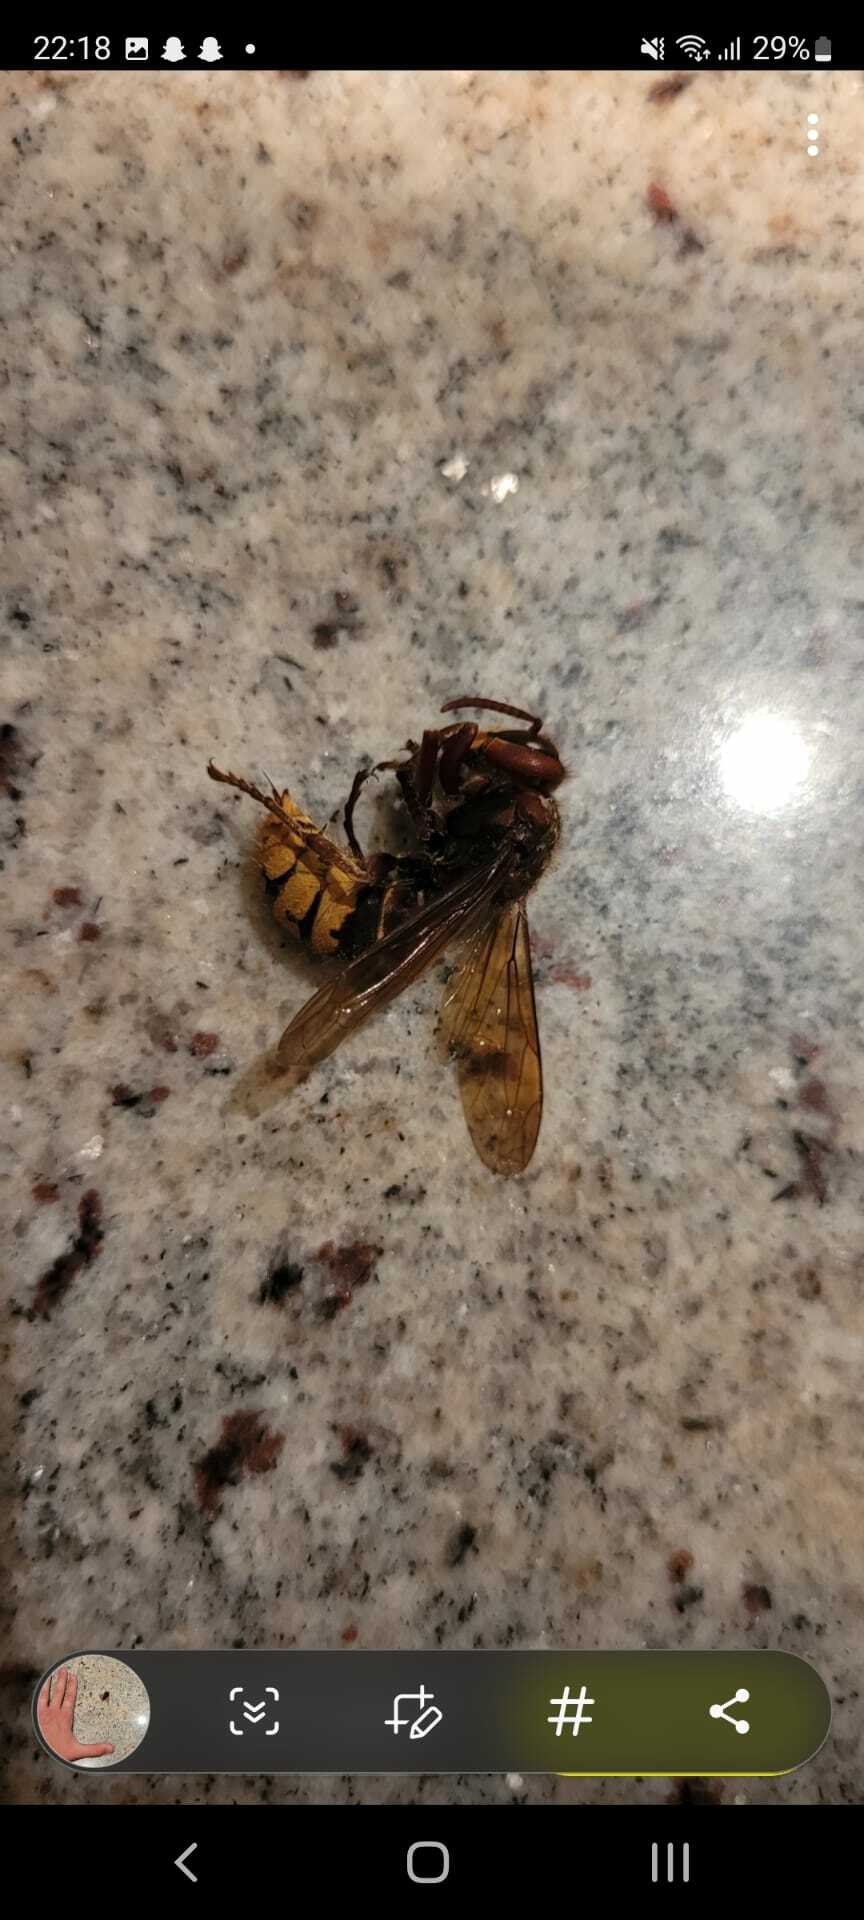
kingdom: Animalia
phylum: Arthropoda
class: Insecta
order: Hymenoptera
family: Vespidae
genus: Vespa
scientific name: Vespa crabro
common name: Hornet
